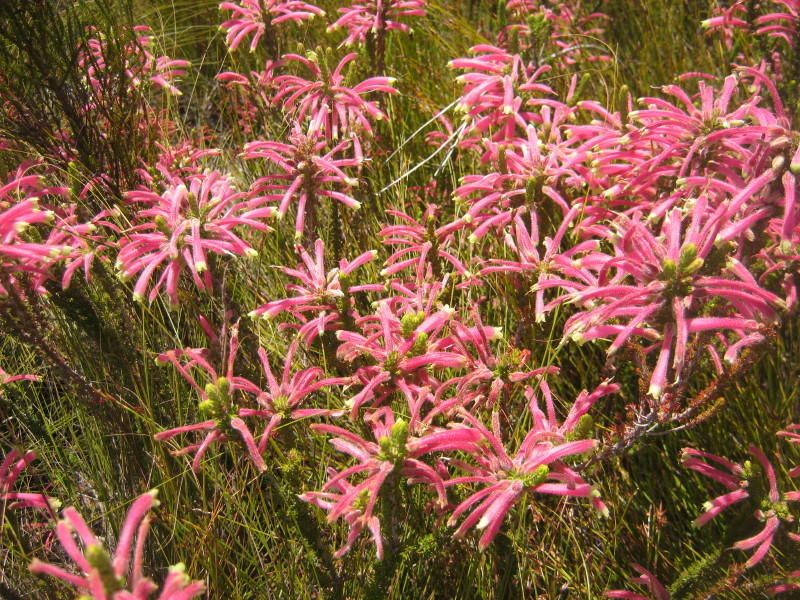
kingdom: Plantae
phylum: Tracheophyta
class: Magnoliopsida
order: Ericales
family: Ericaceae
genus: Erica
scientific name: Erica densifolia
